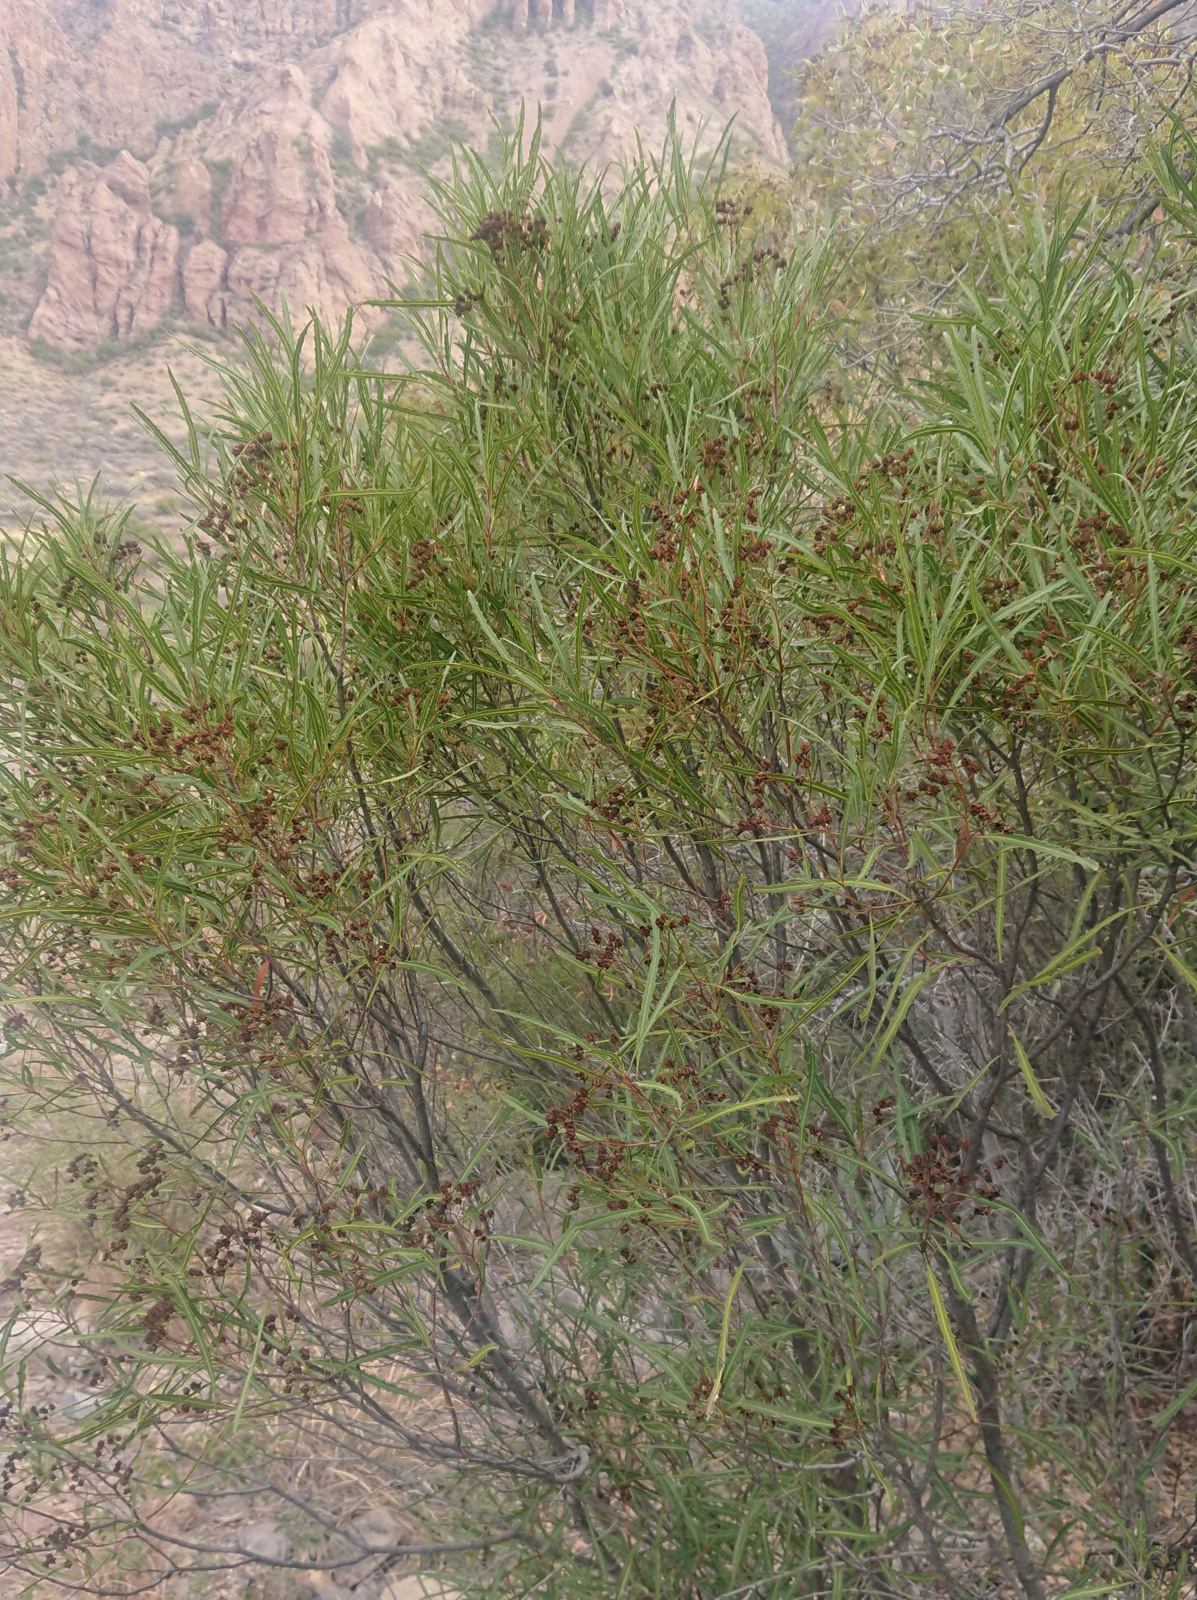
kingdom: Plantae
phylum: Tracheophyta
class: Magnoliopsida
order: Rosales
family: Rosaceae
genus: Vauquelinia
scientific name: Vauquelinia corymbosa
